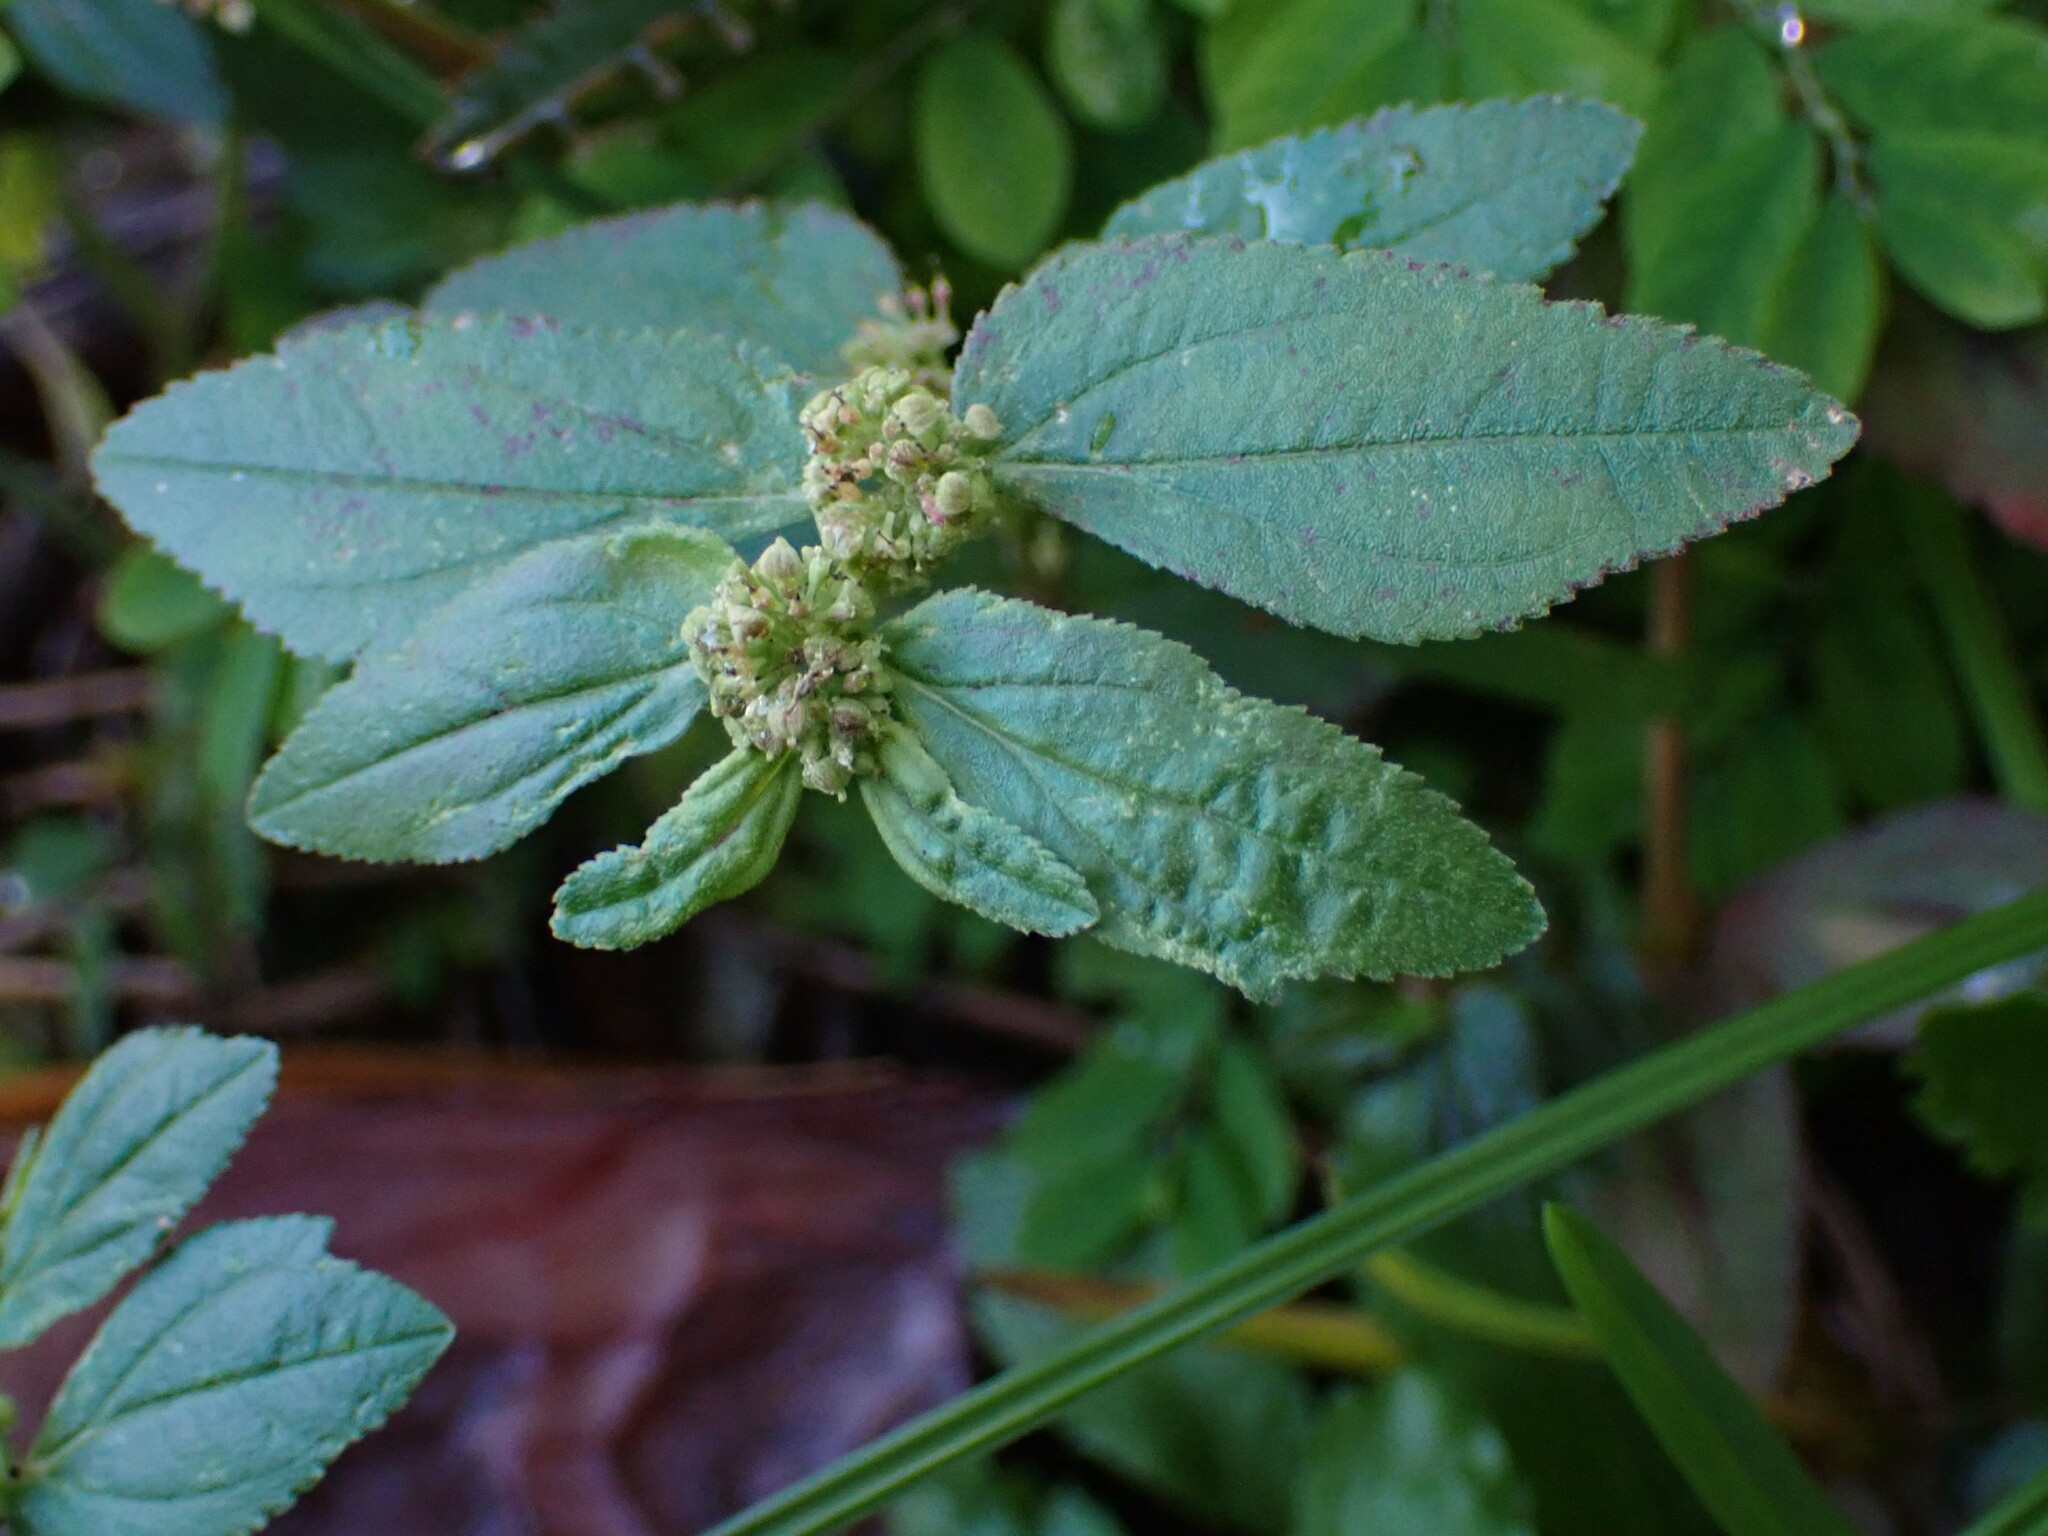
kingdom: Plantae
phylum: Tracheophyta
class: Magnoliopsida
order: Malpighiales
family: Euphorbiaceae
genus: Euphorbia
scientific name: Euphorbia hirta
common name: Pillpod sandmat
